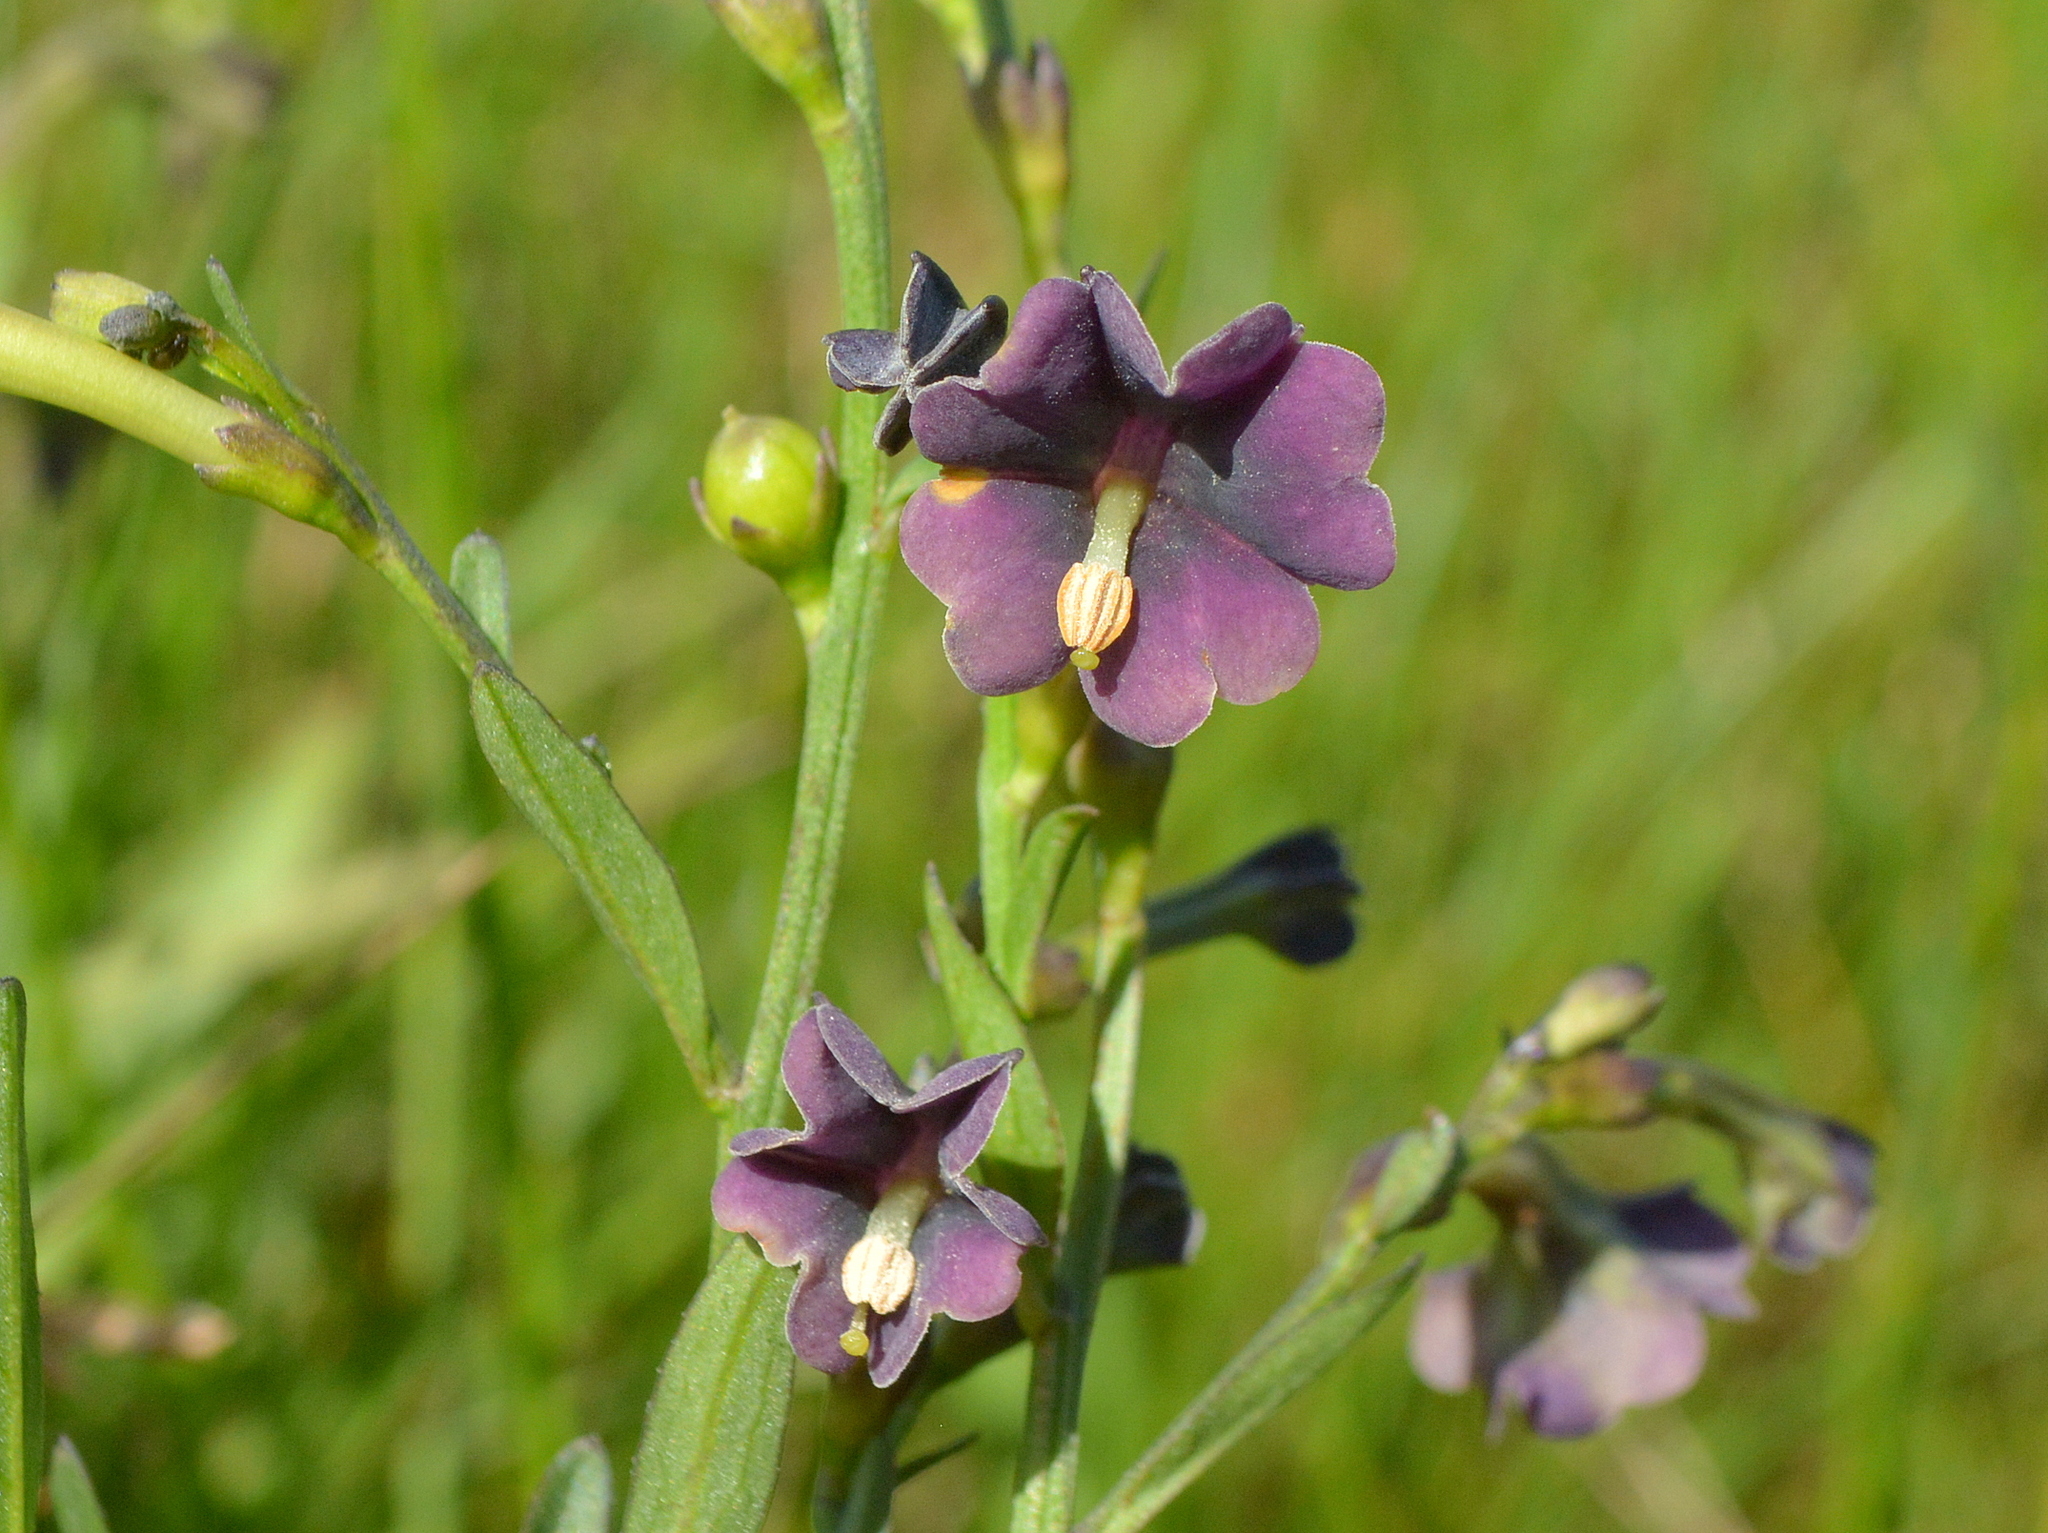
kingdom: Plantae
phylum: Tracheophyta
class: Magnoliopsida
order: Solanales
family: Solanaceae
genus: Schwenckia
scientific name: Schwenckia curviflora
